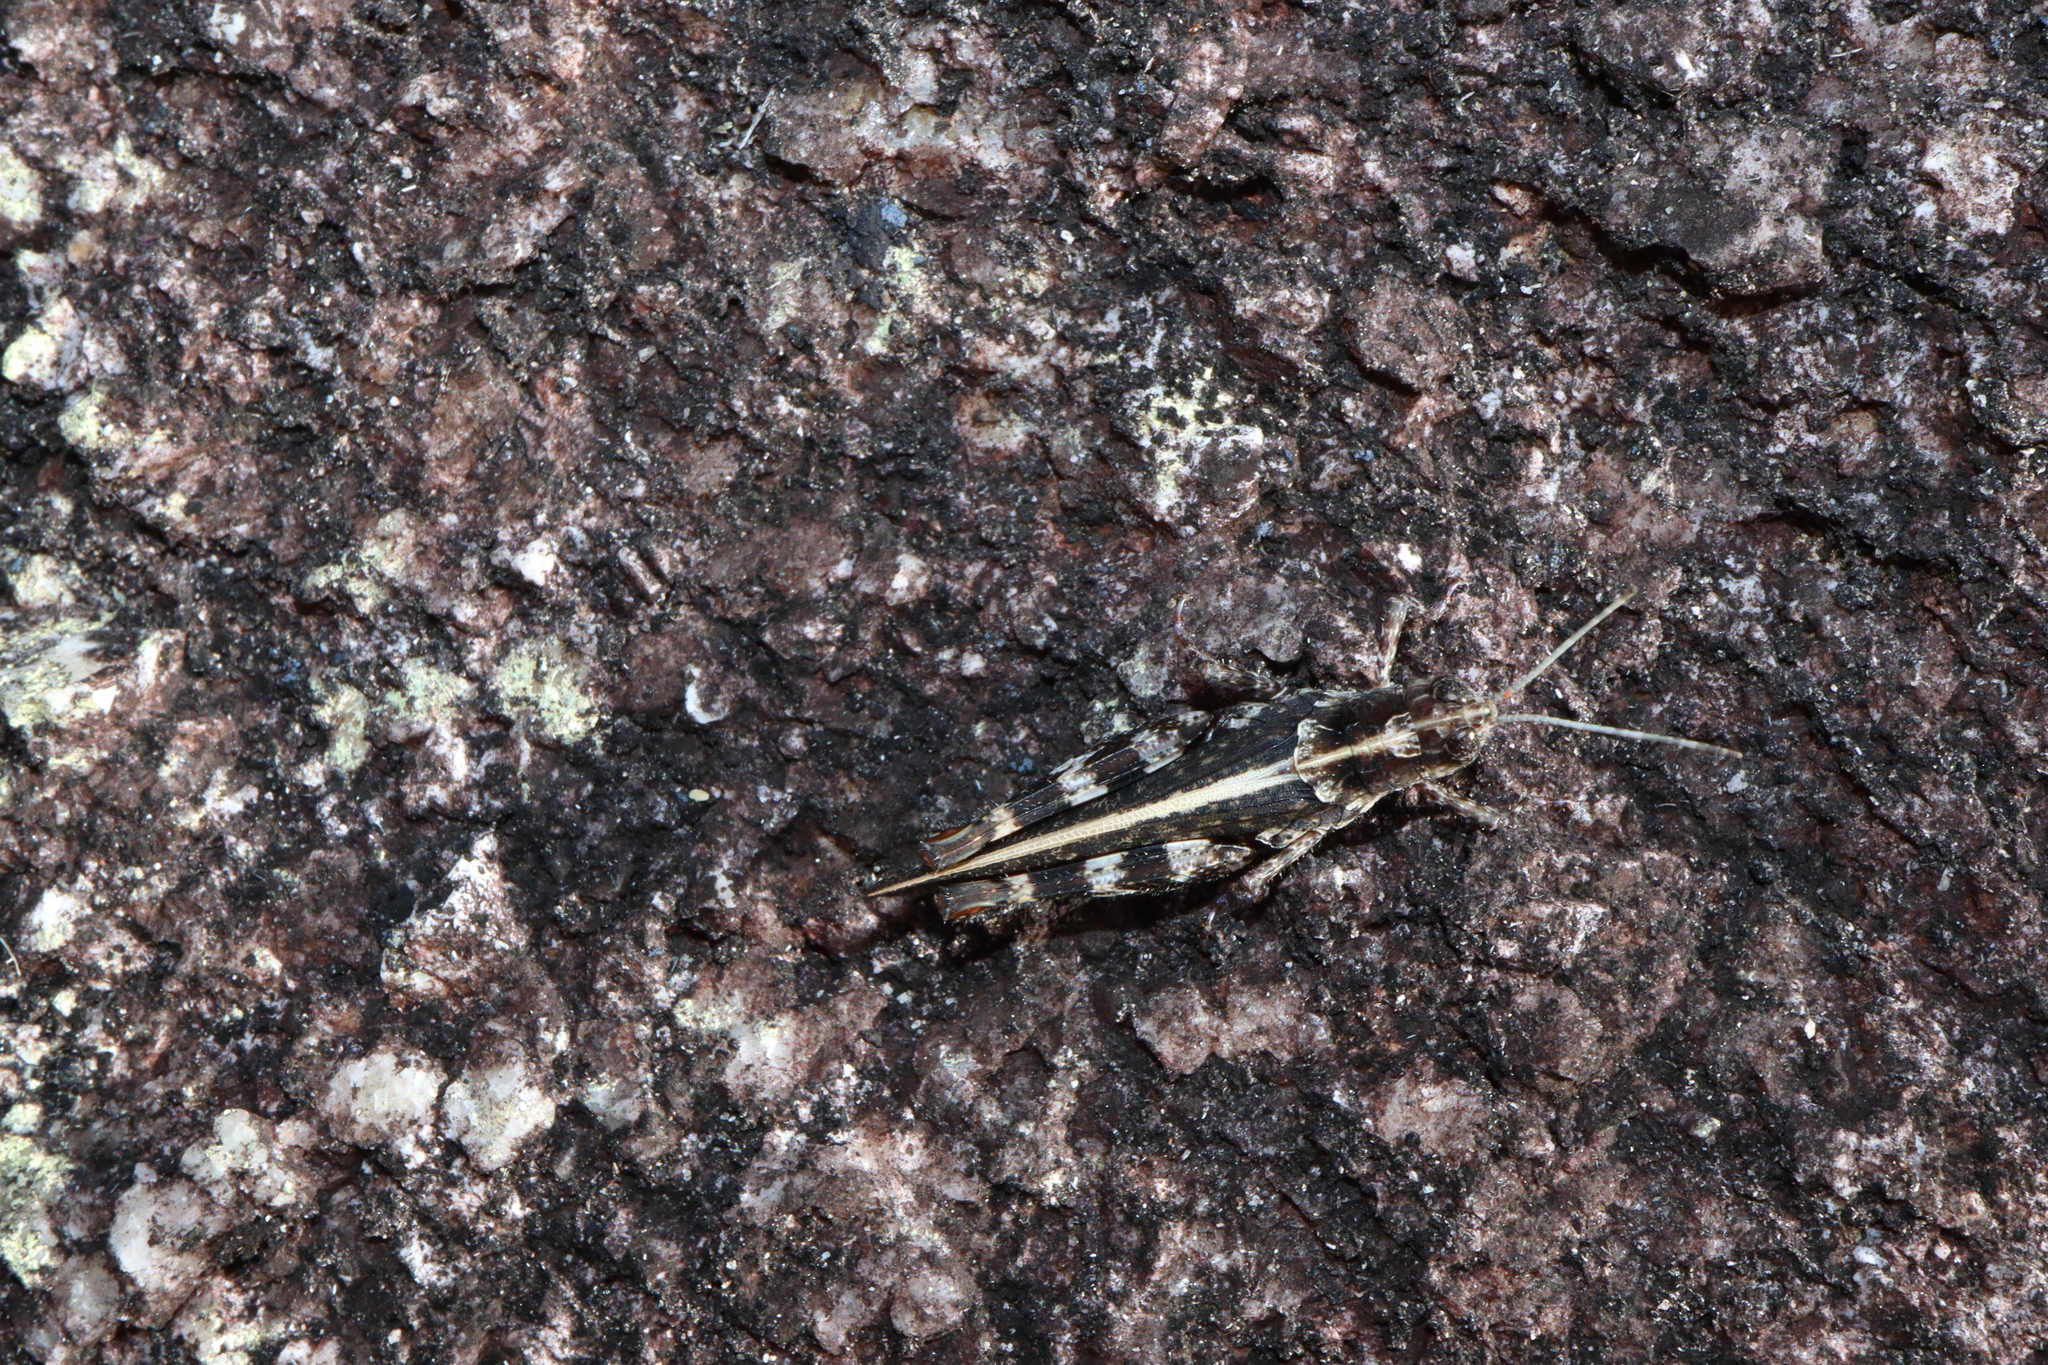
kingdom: Animalia
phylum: Arthropoda
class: Insecta
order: Orthoptera
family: Acrididae
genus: Clepsydria
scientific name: Clepsydria variegata
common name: Salt & pepper clepsydria
